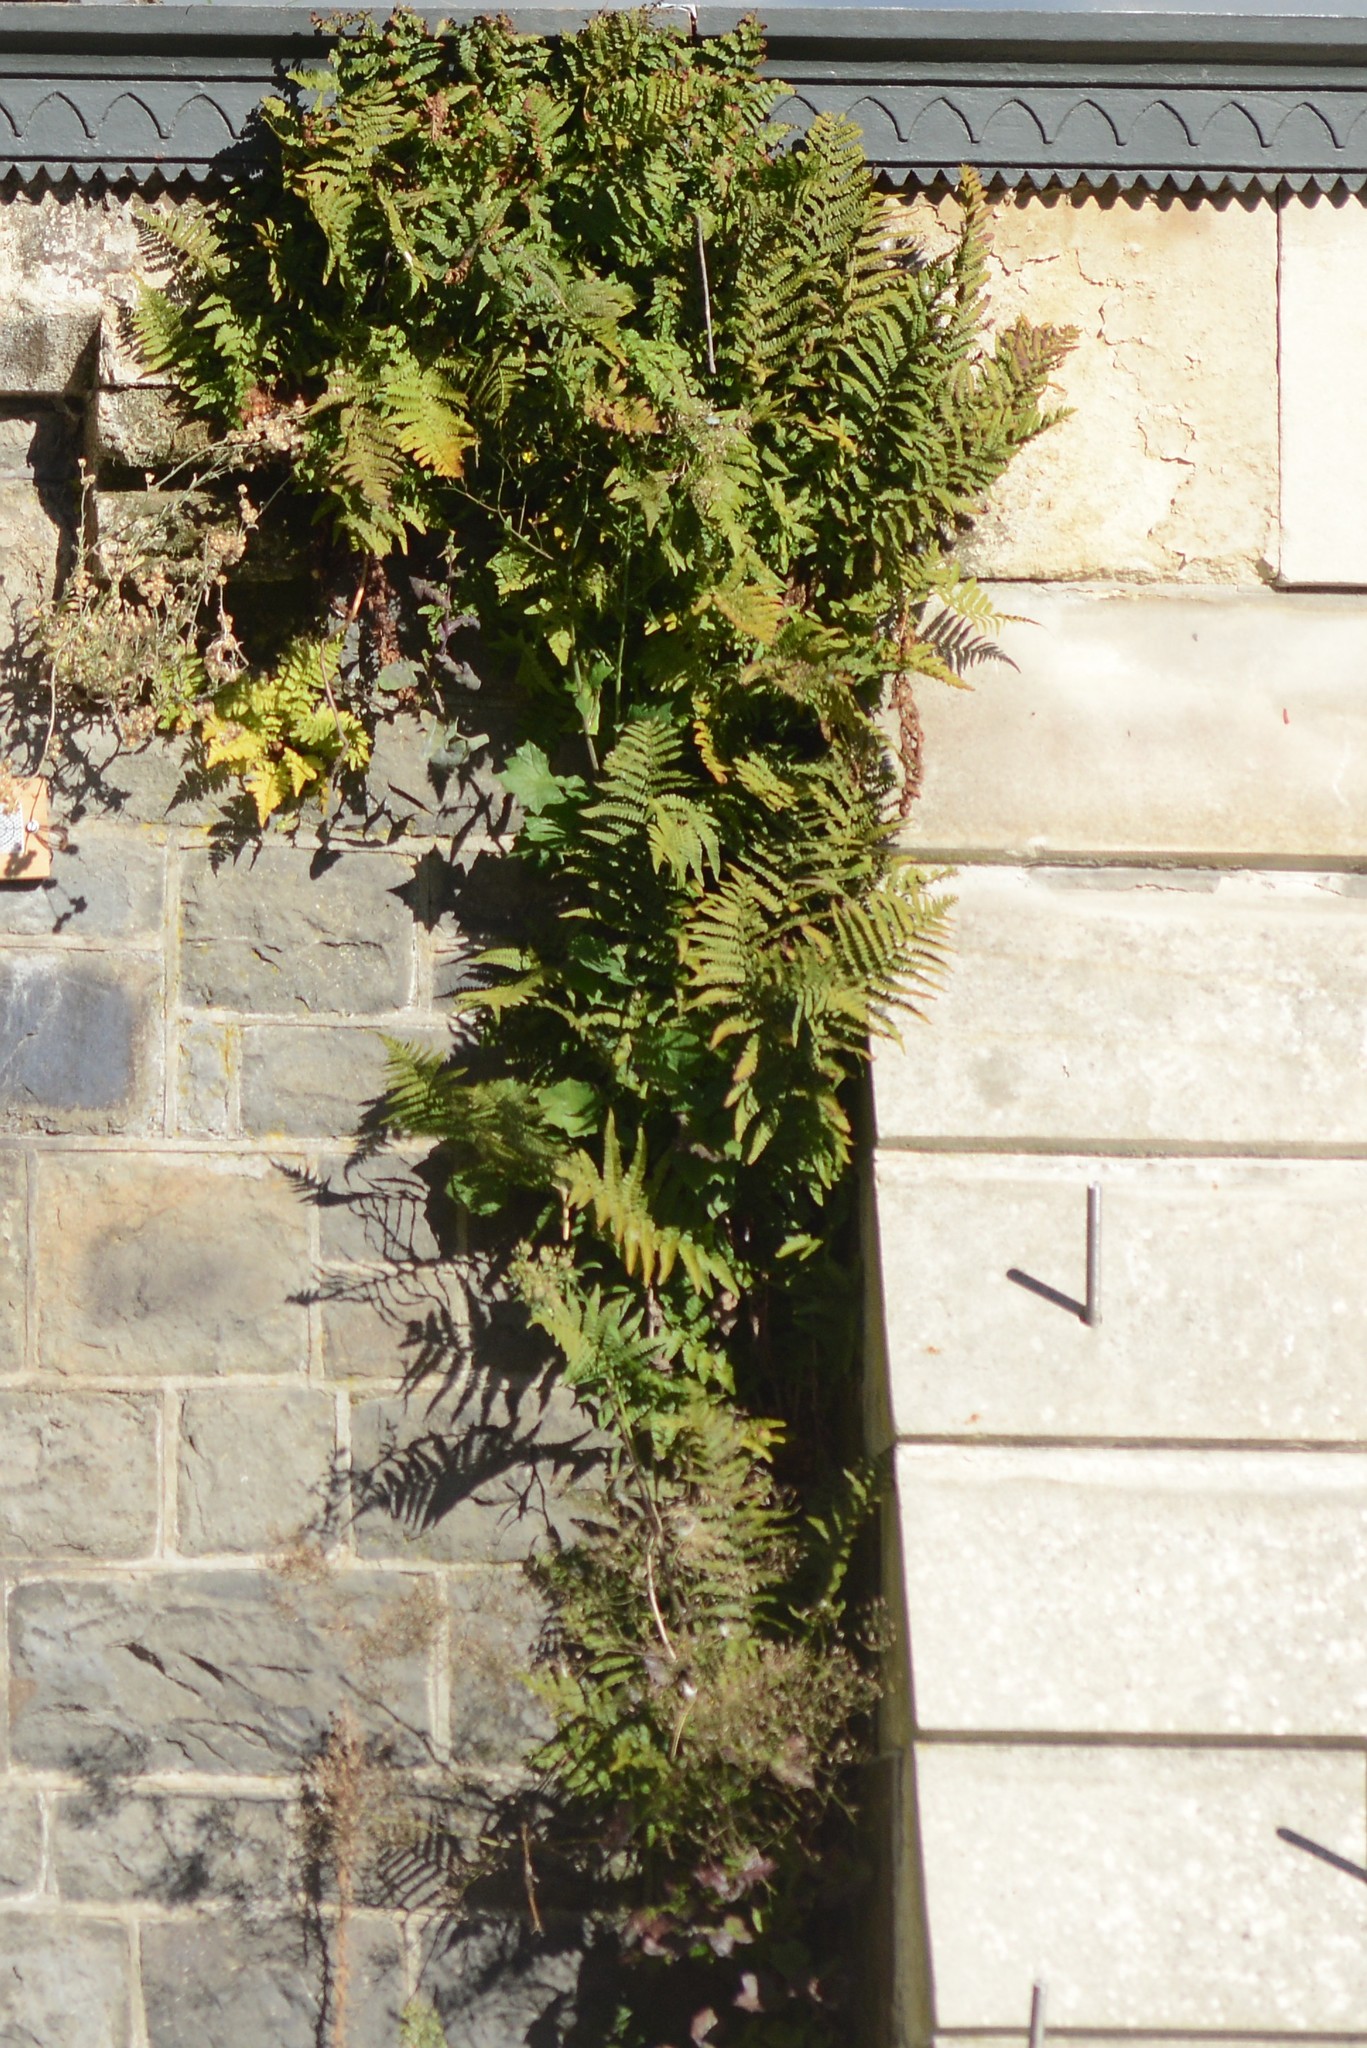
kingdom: Plantae
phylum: Tracheophyta
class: Polypodiopsida
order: Polypodiales
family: Dryopteridaceae
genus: Dryopteris
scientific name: Dryopteris filix-mas
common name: Male fern
